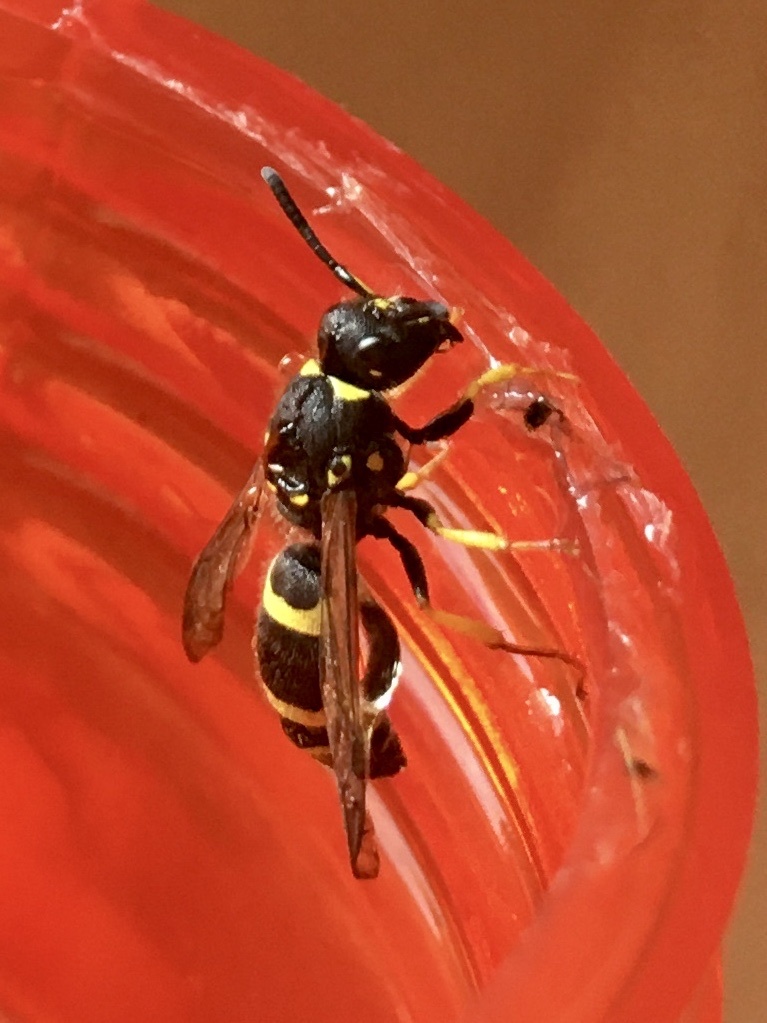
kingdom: Animalia
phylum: Arthropoda
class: Insecta
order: Hymenoptera
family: Vespidae
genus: Ancistrocerus
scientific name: Ancistrocerus gazella
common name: European tube wasp
